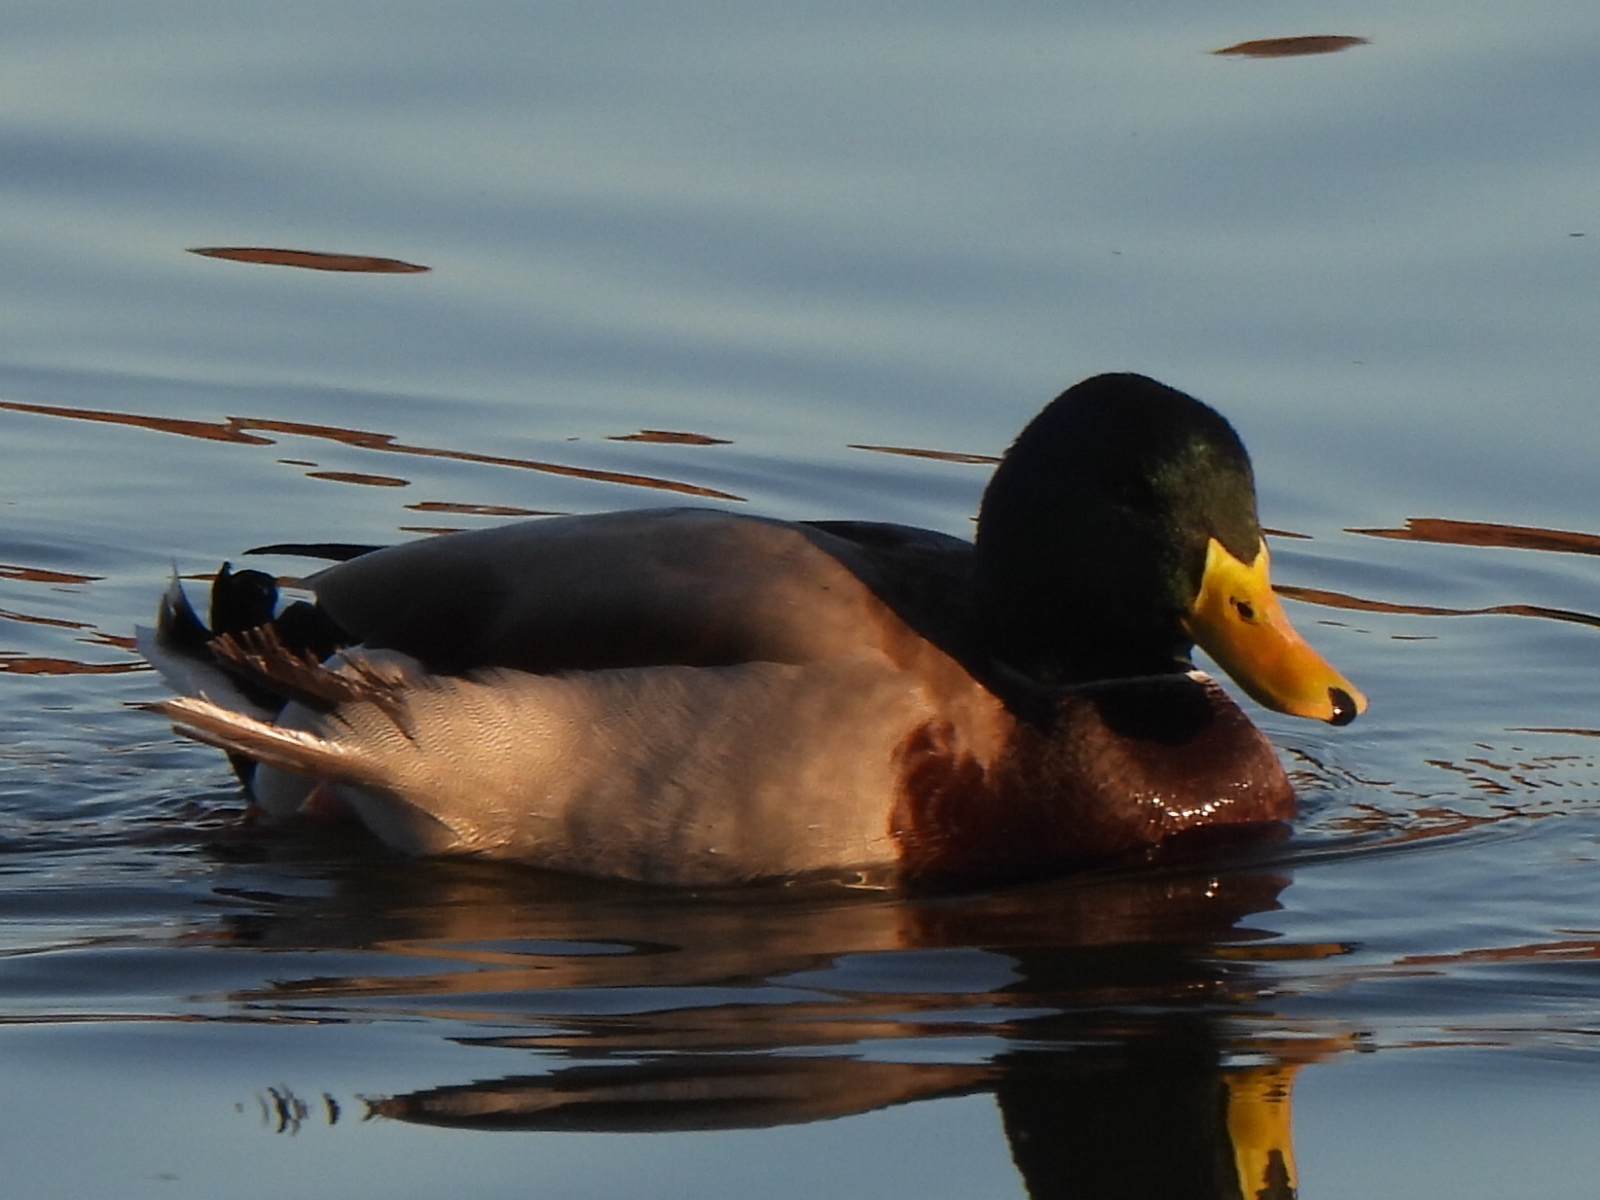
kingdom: Animalia
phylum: Chordata
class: Aves
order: Anseriformes
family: Anatidae
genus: Anas
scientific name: Anas platyrhynchos
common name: Mallard
